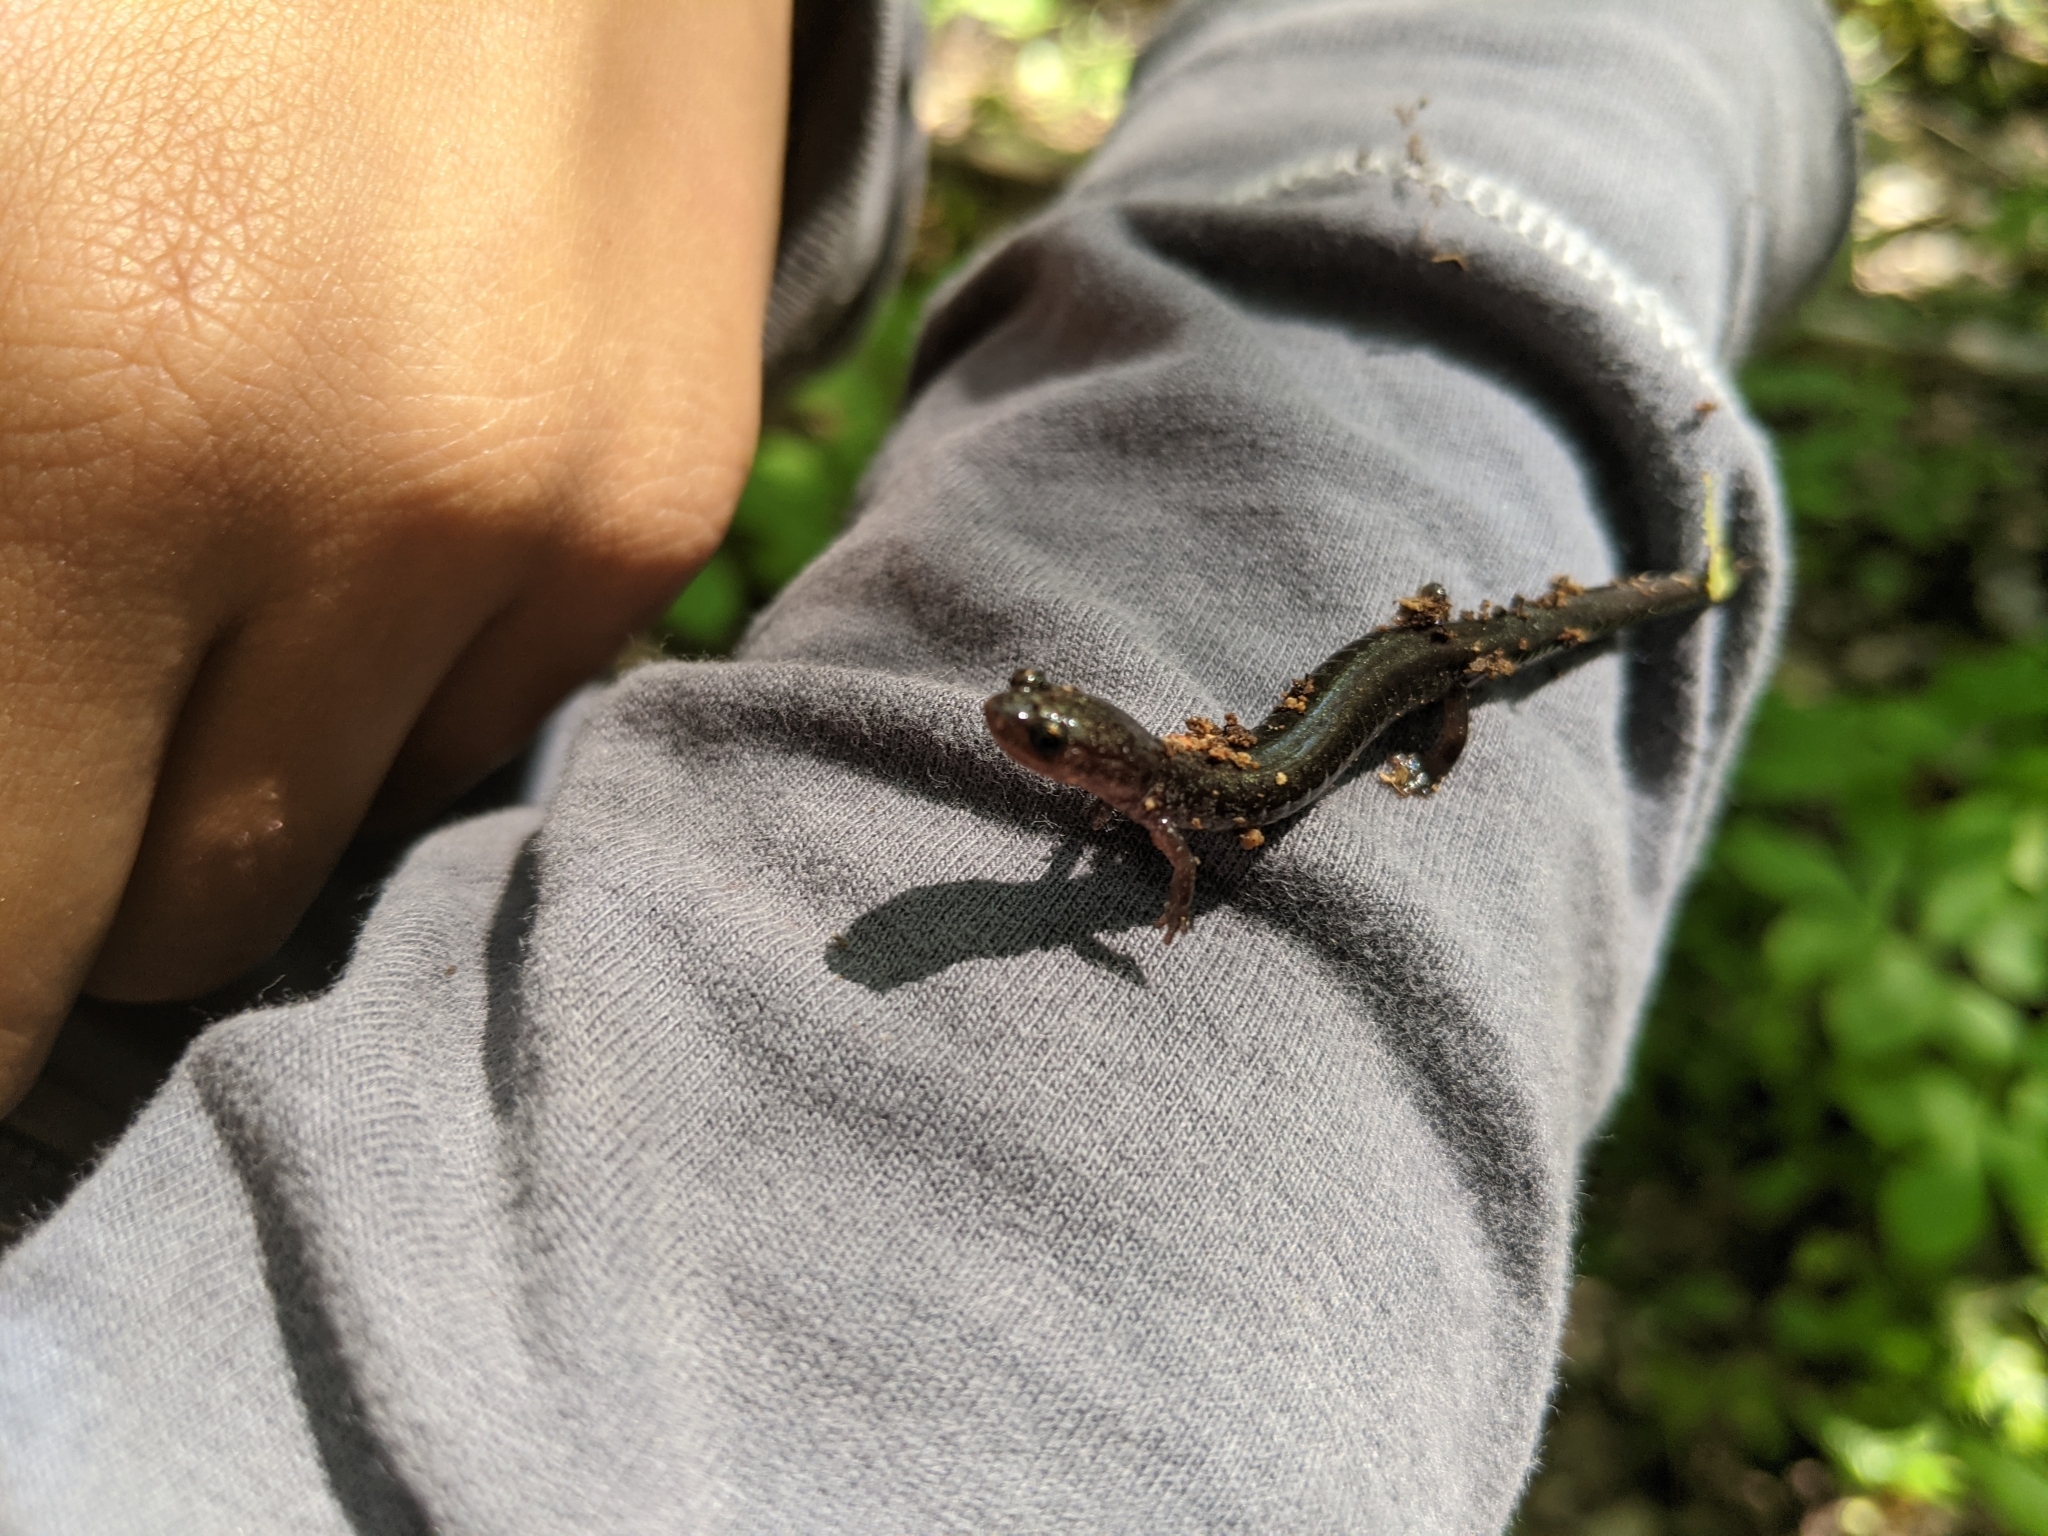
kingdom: Animalia
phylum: Chordata
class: Amphibia
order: Caudata
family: Plethodontidae
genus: Plethodon
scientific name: Plethodon cinereus
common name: Redback salamander
